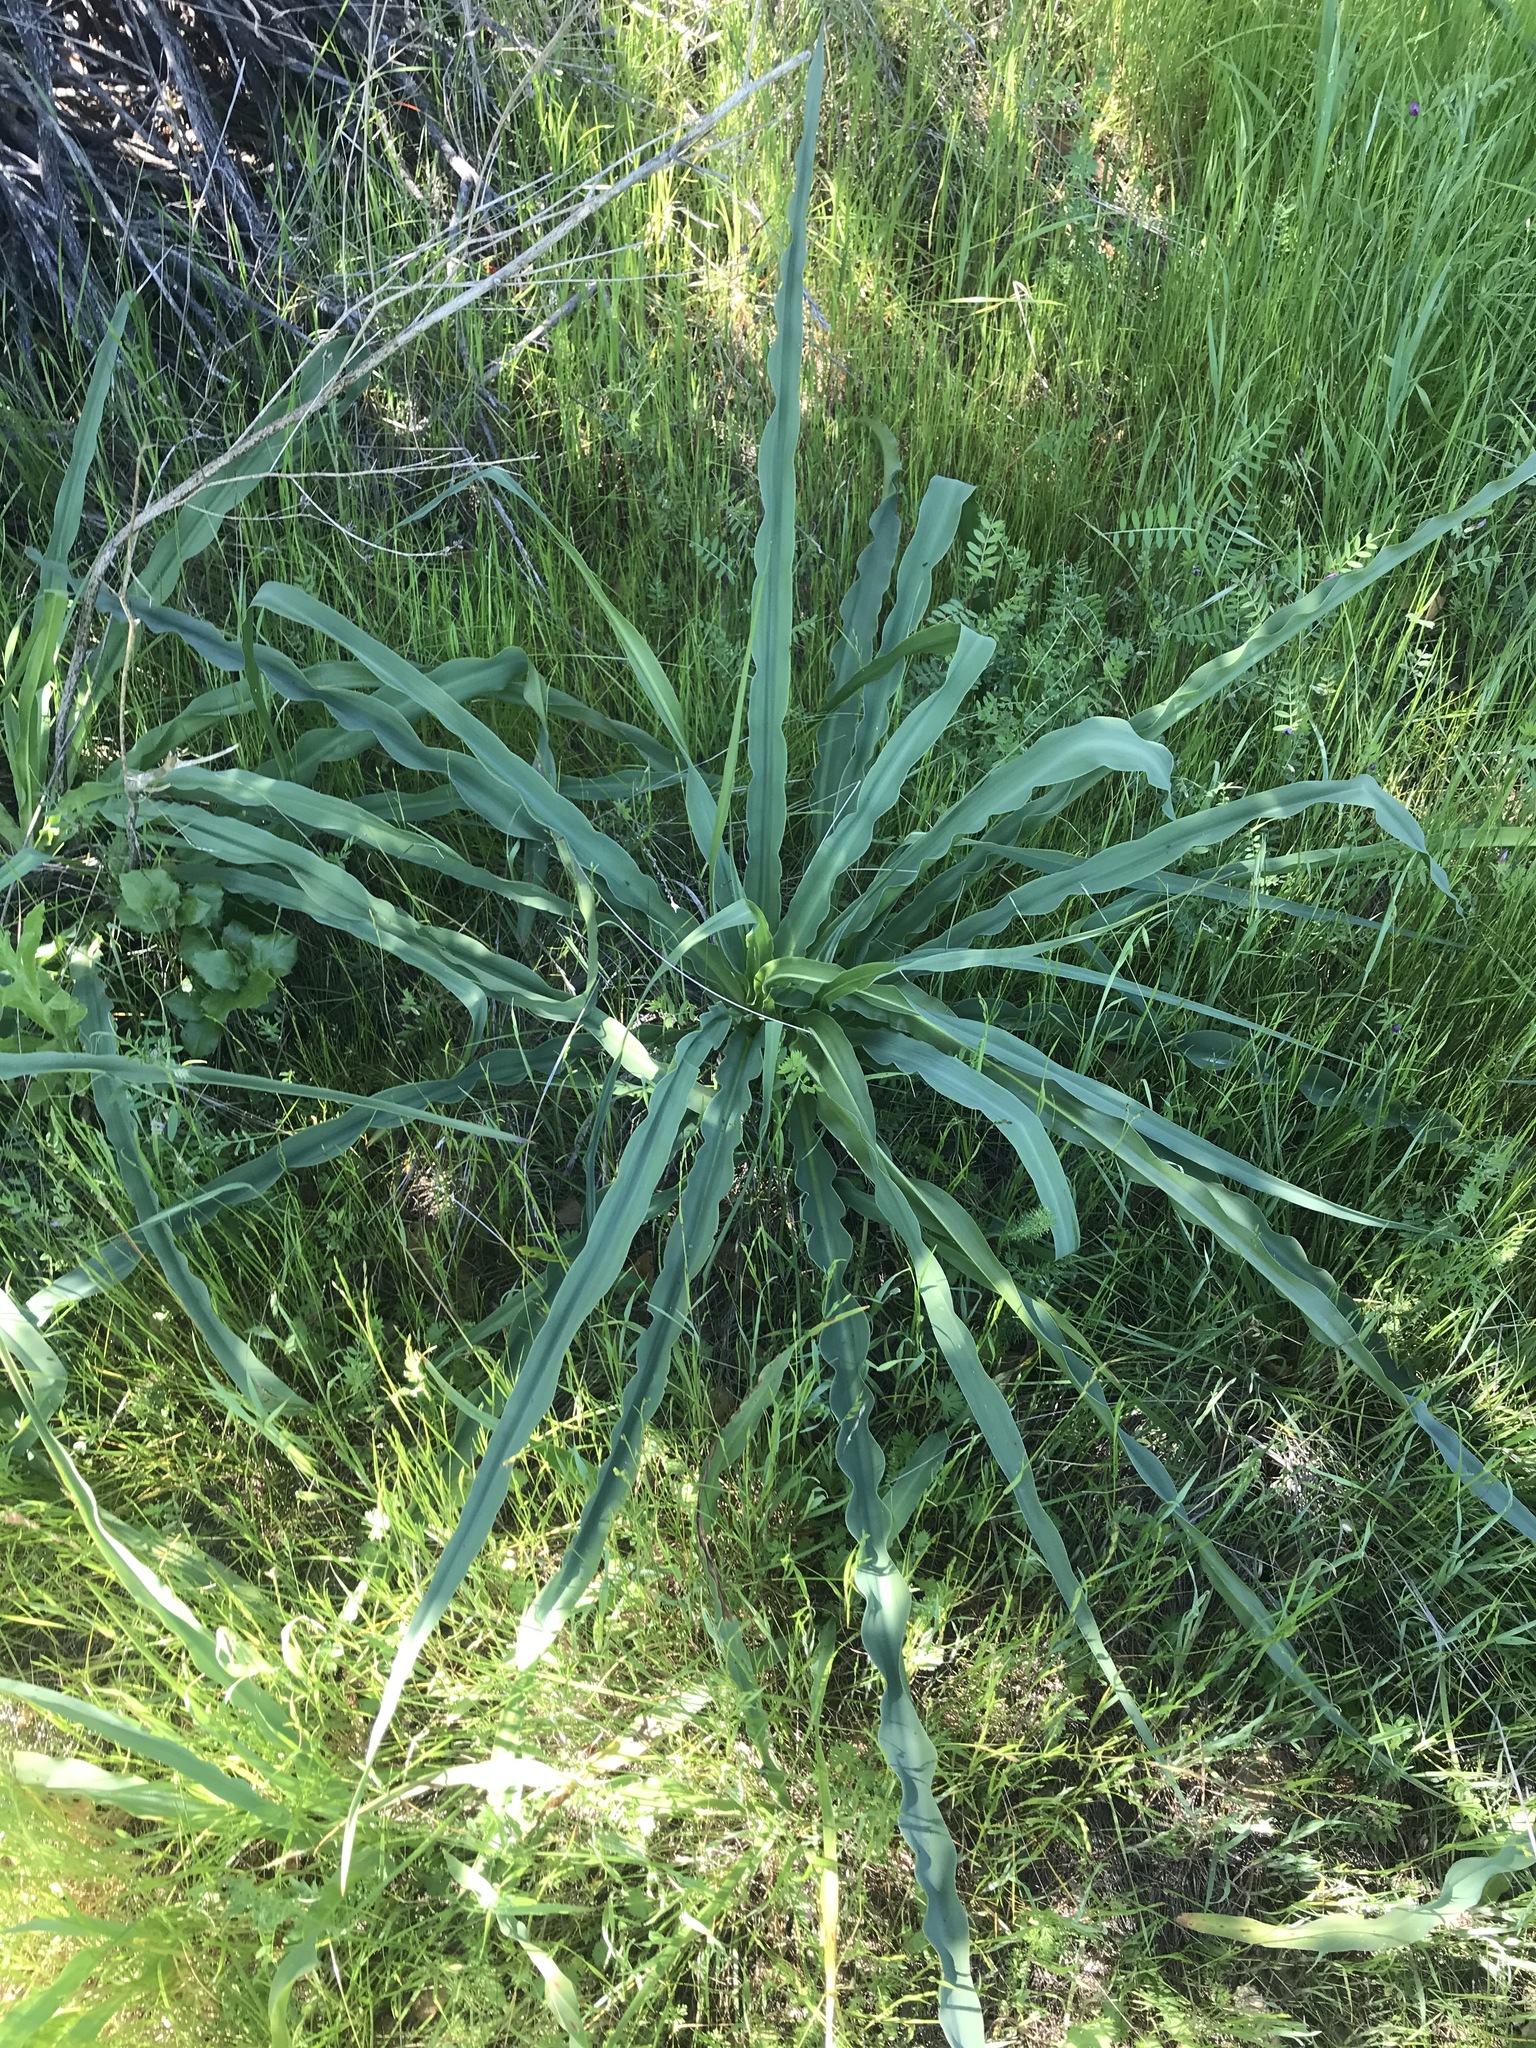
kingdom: Plantae
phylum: Tracheophyta
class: Liliopsida
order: Asparagales
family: Asparagaceae
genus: Chlorogalum
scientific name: Chlorogalum pomeridianum
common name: Amole
